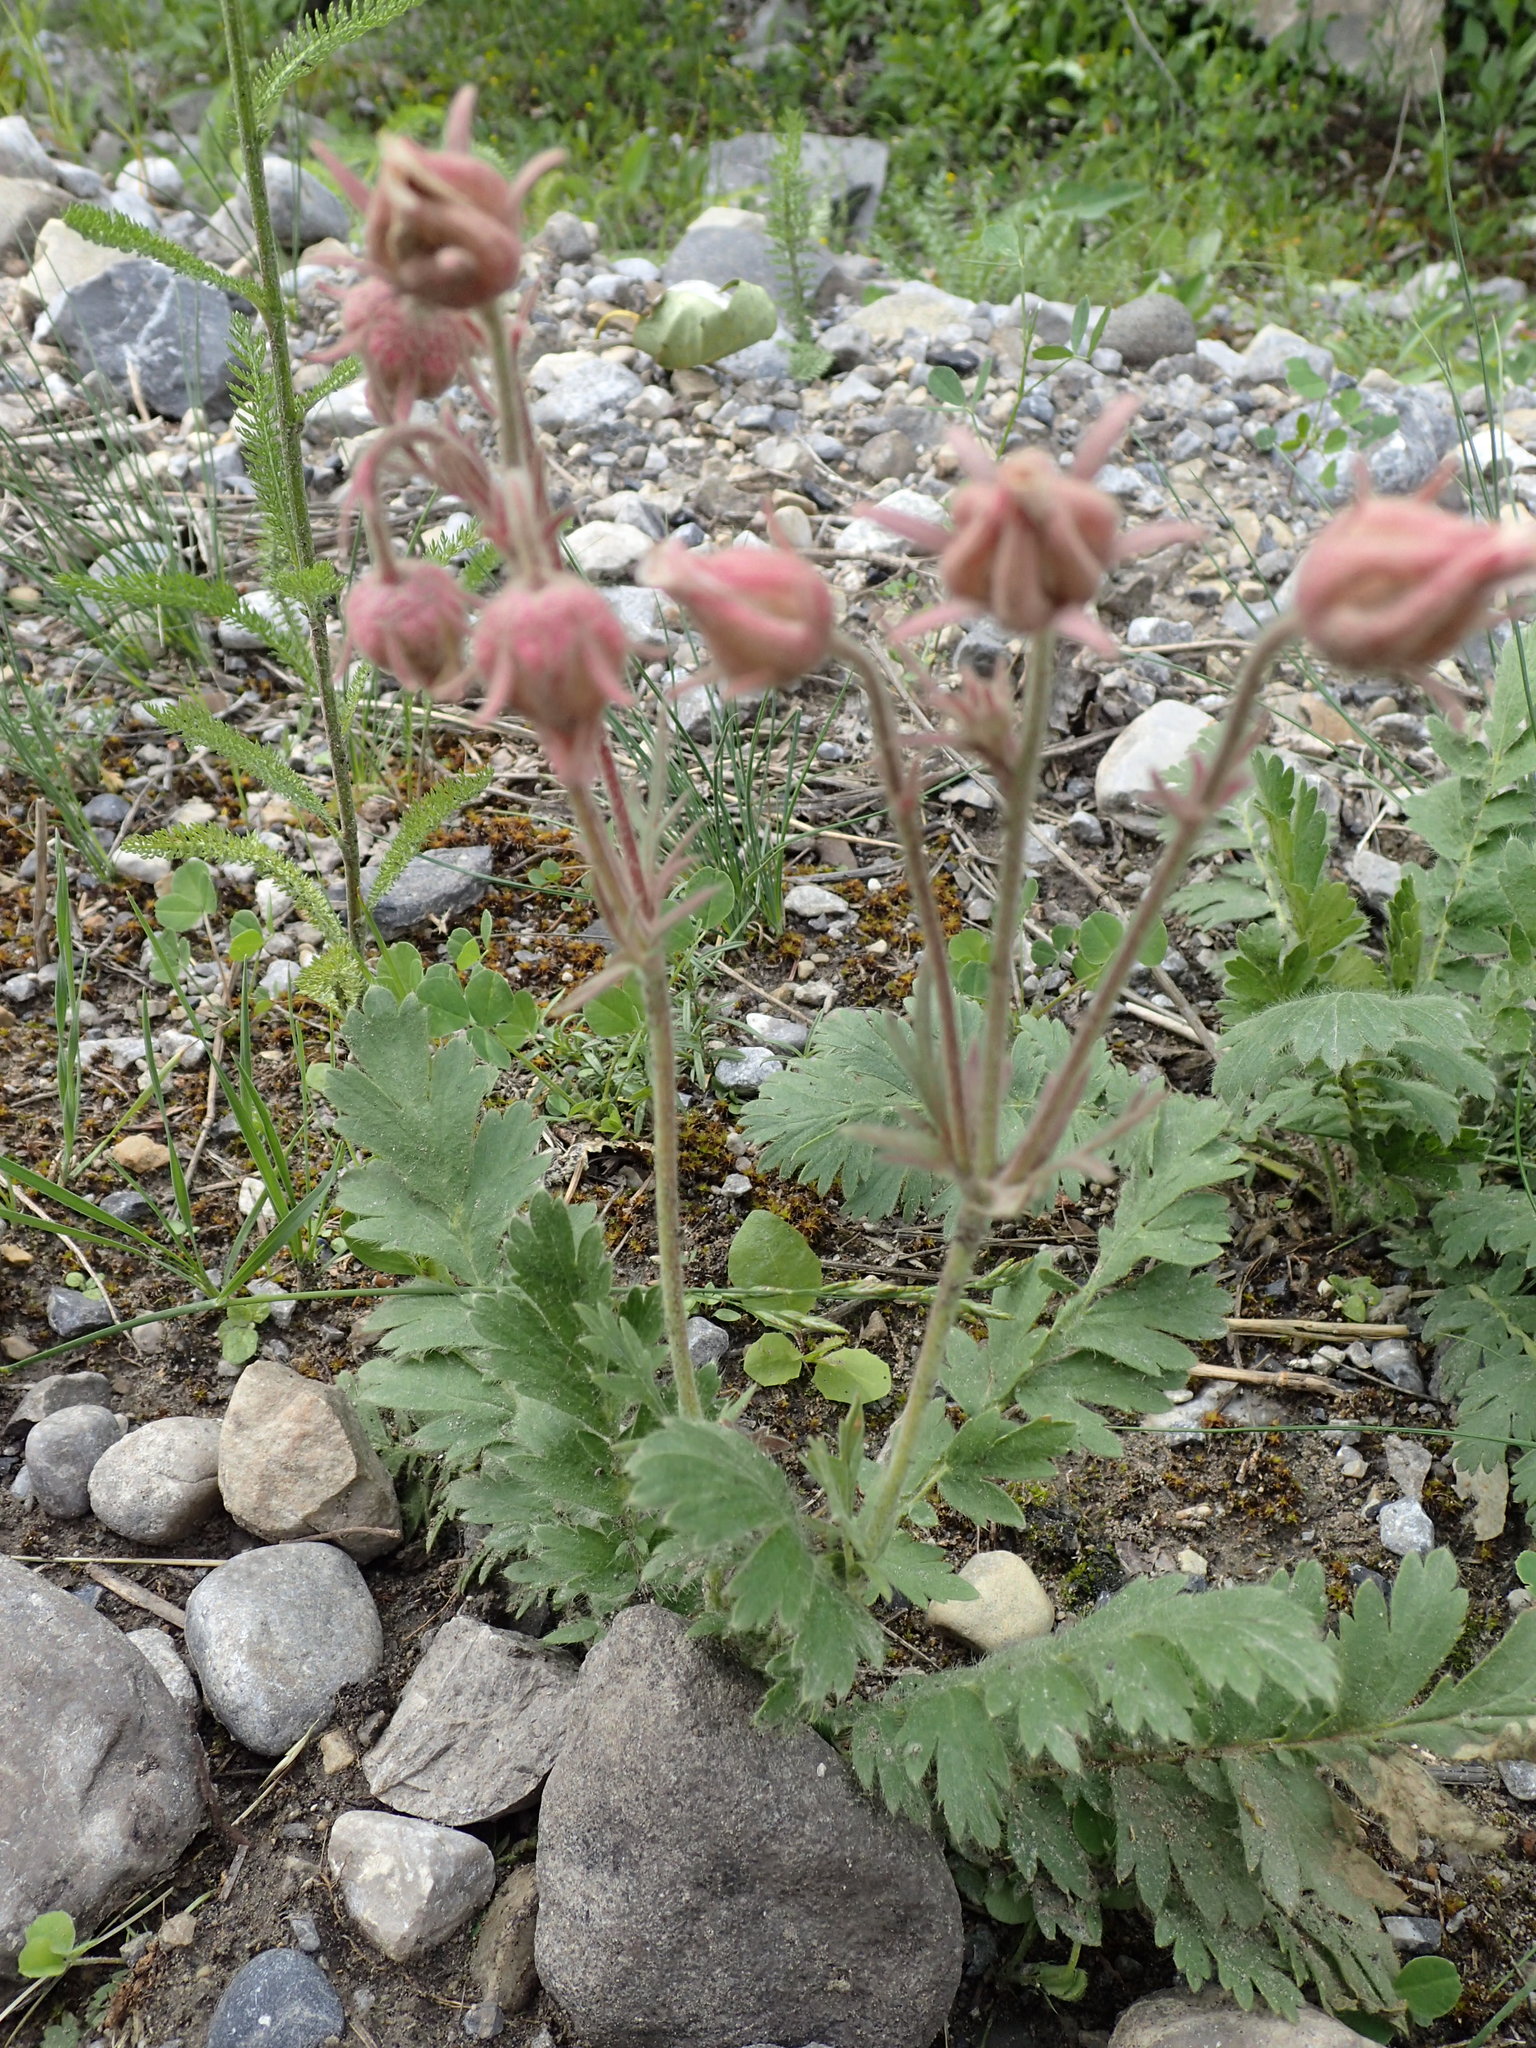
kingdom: Plantae
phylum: Tracheophyta
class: Magnoliopsida
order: Rosales
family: Rosaceae
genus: Geum
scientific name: Geum triflorum
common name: Old man's whiskers
